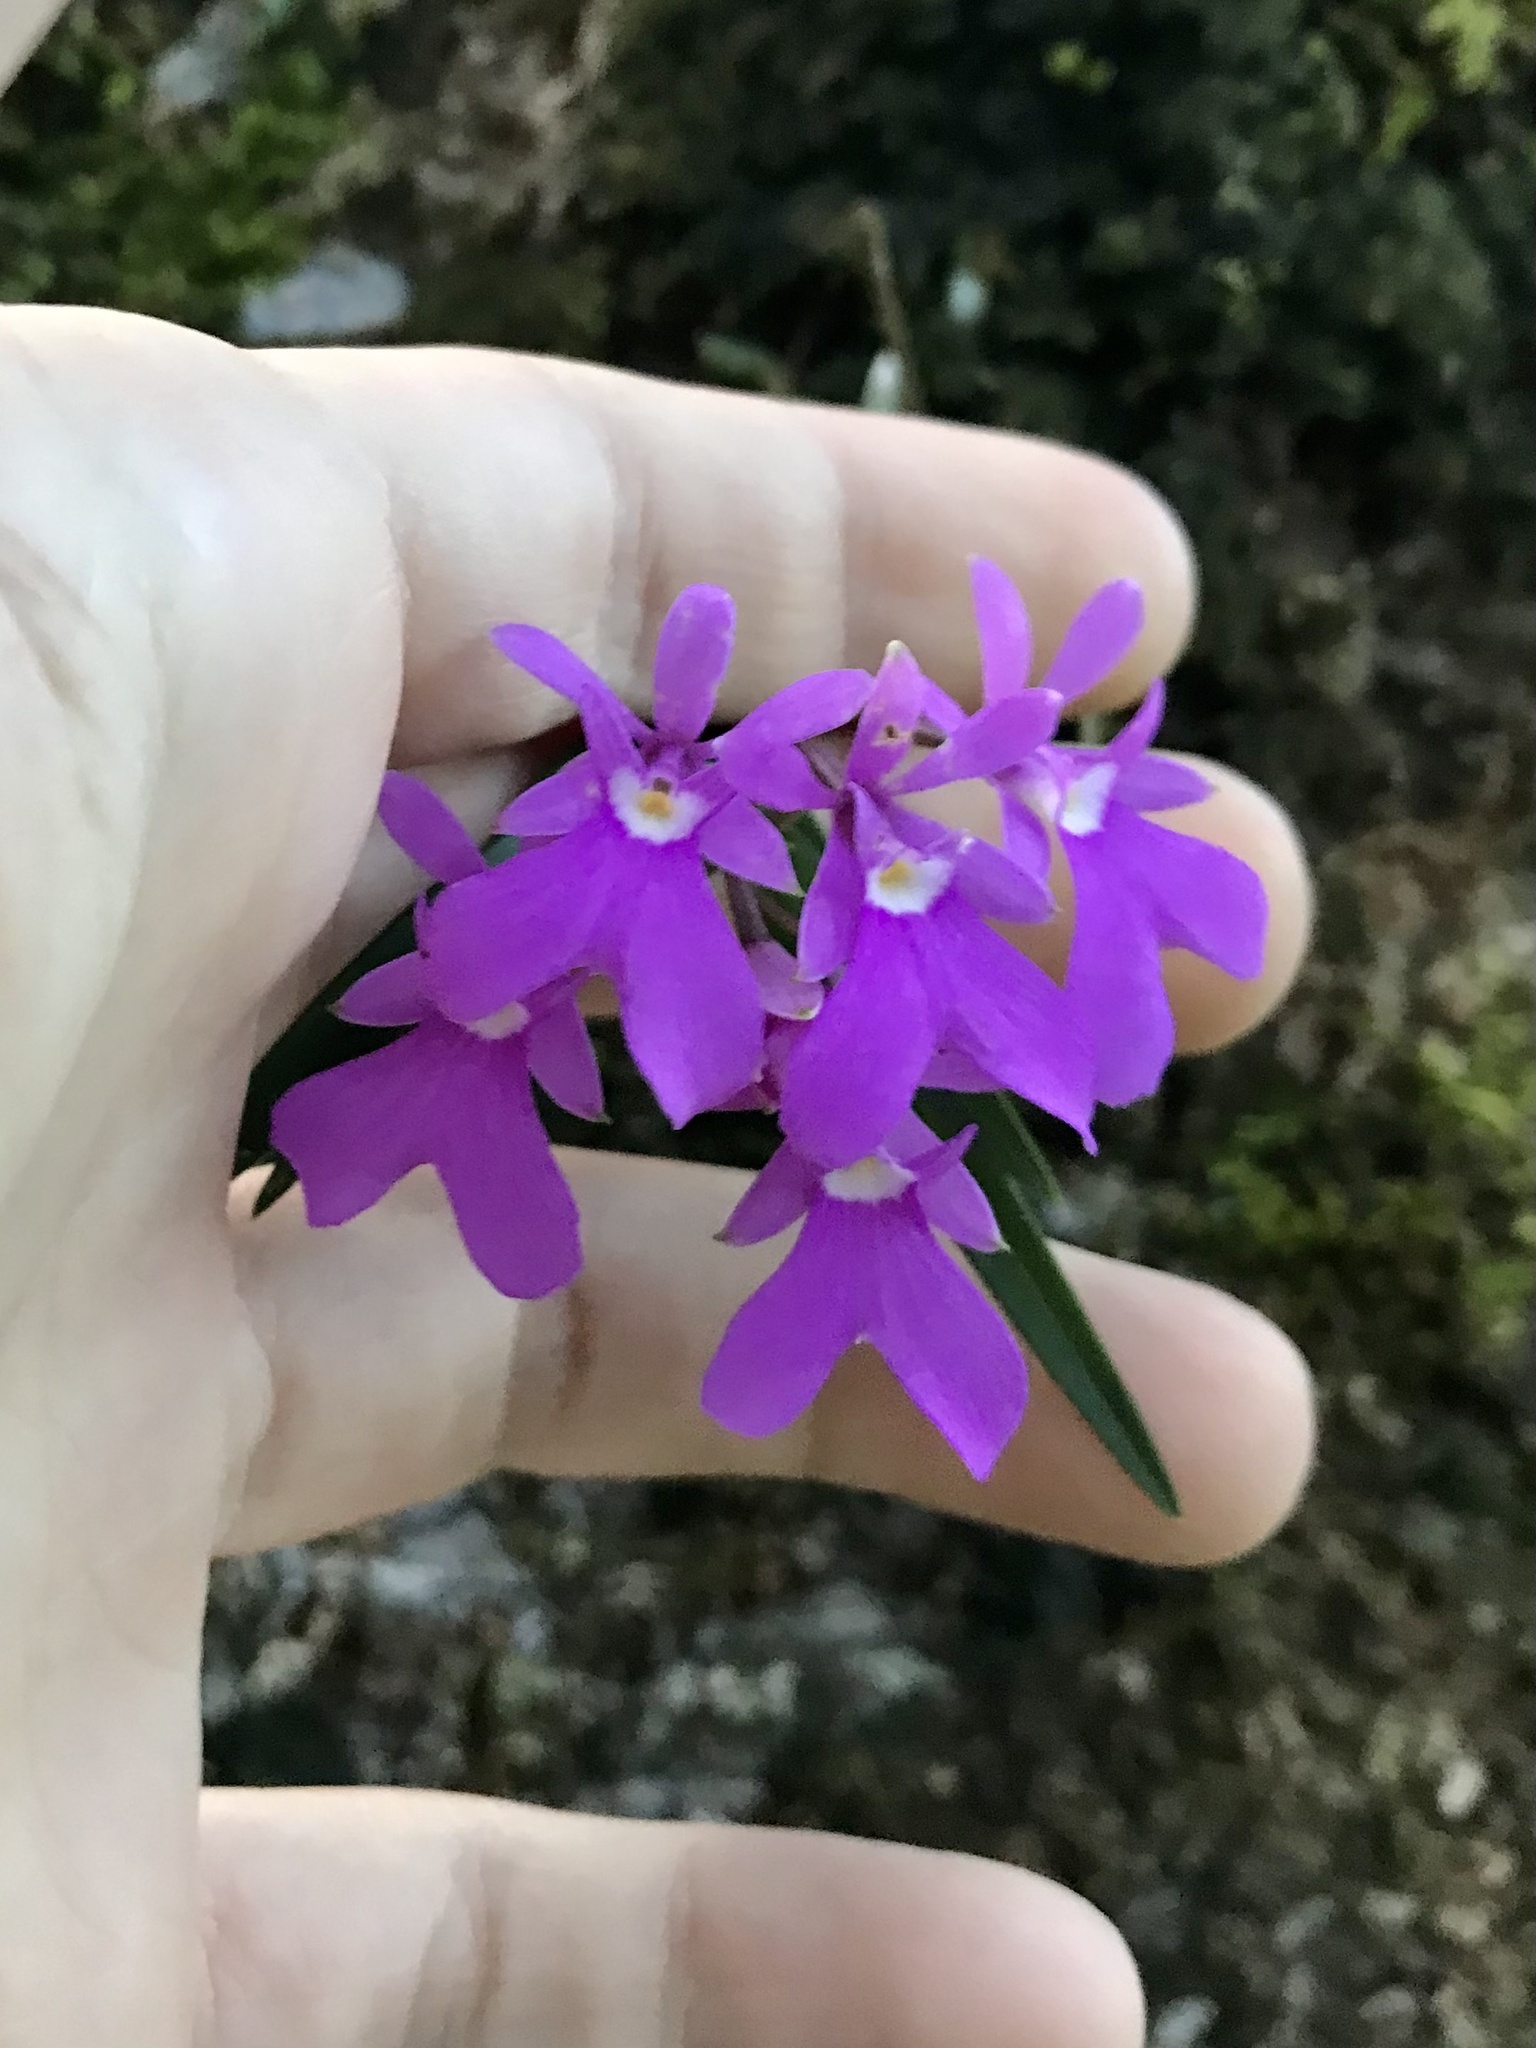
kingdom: Plantae
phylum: Tracheophyta
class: Liliopsida
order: Asparagales
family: Orchidaceae
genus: Epidendrum
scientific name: Epidendrum centropetalum
